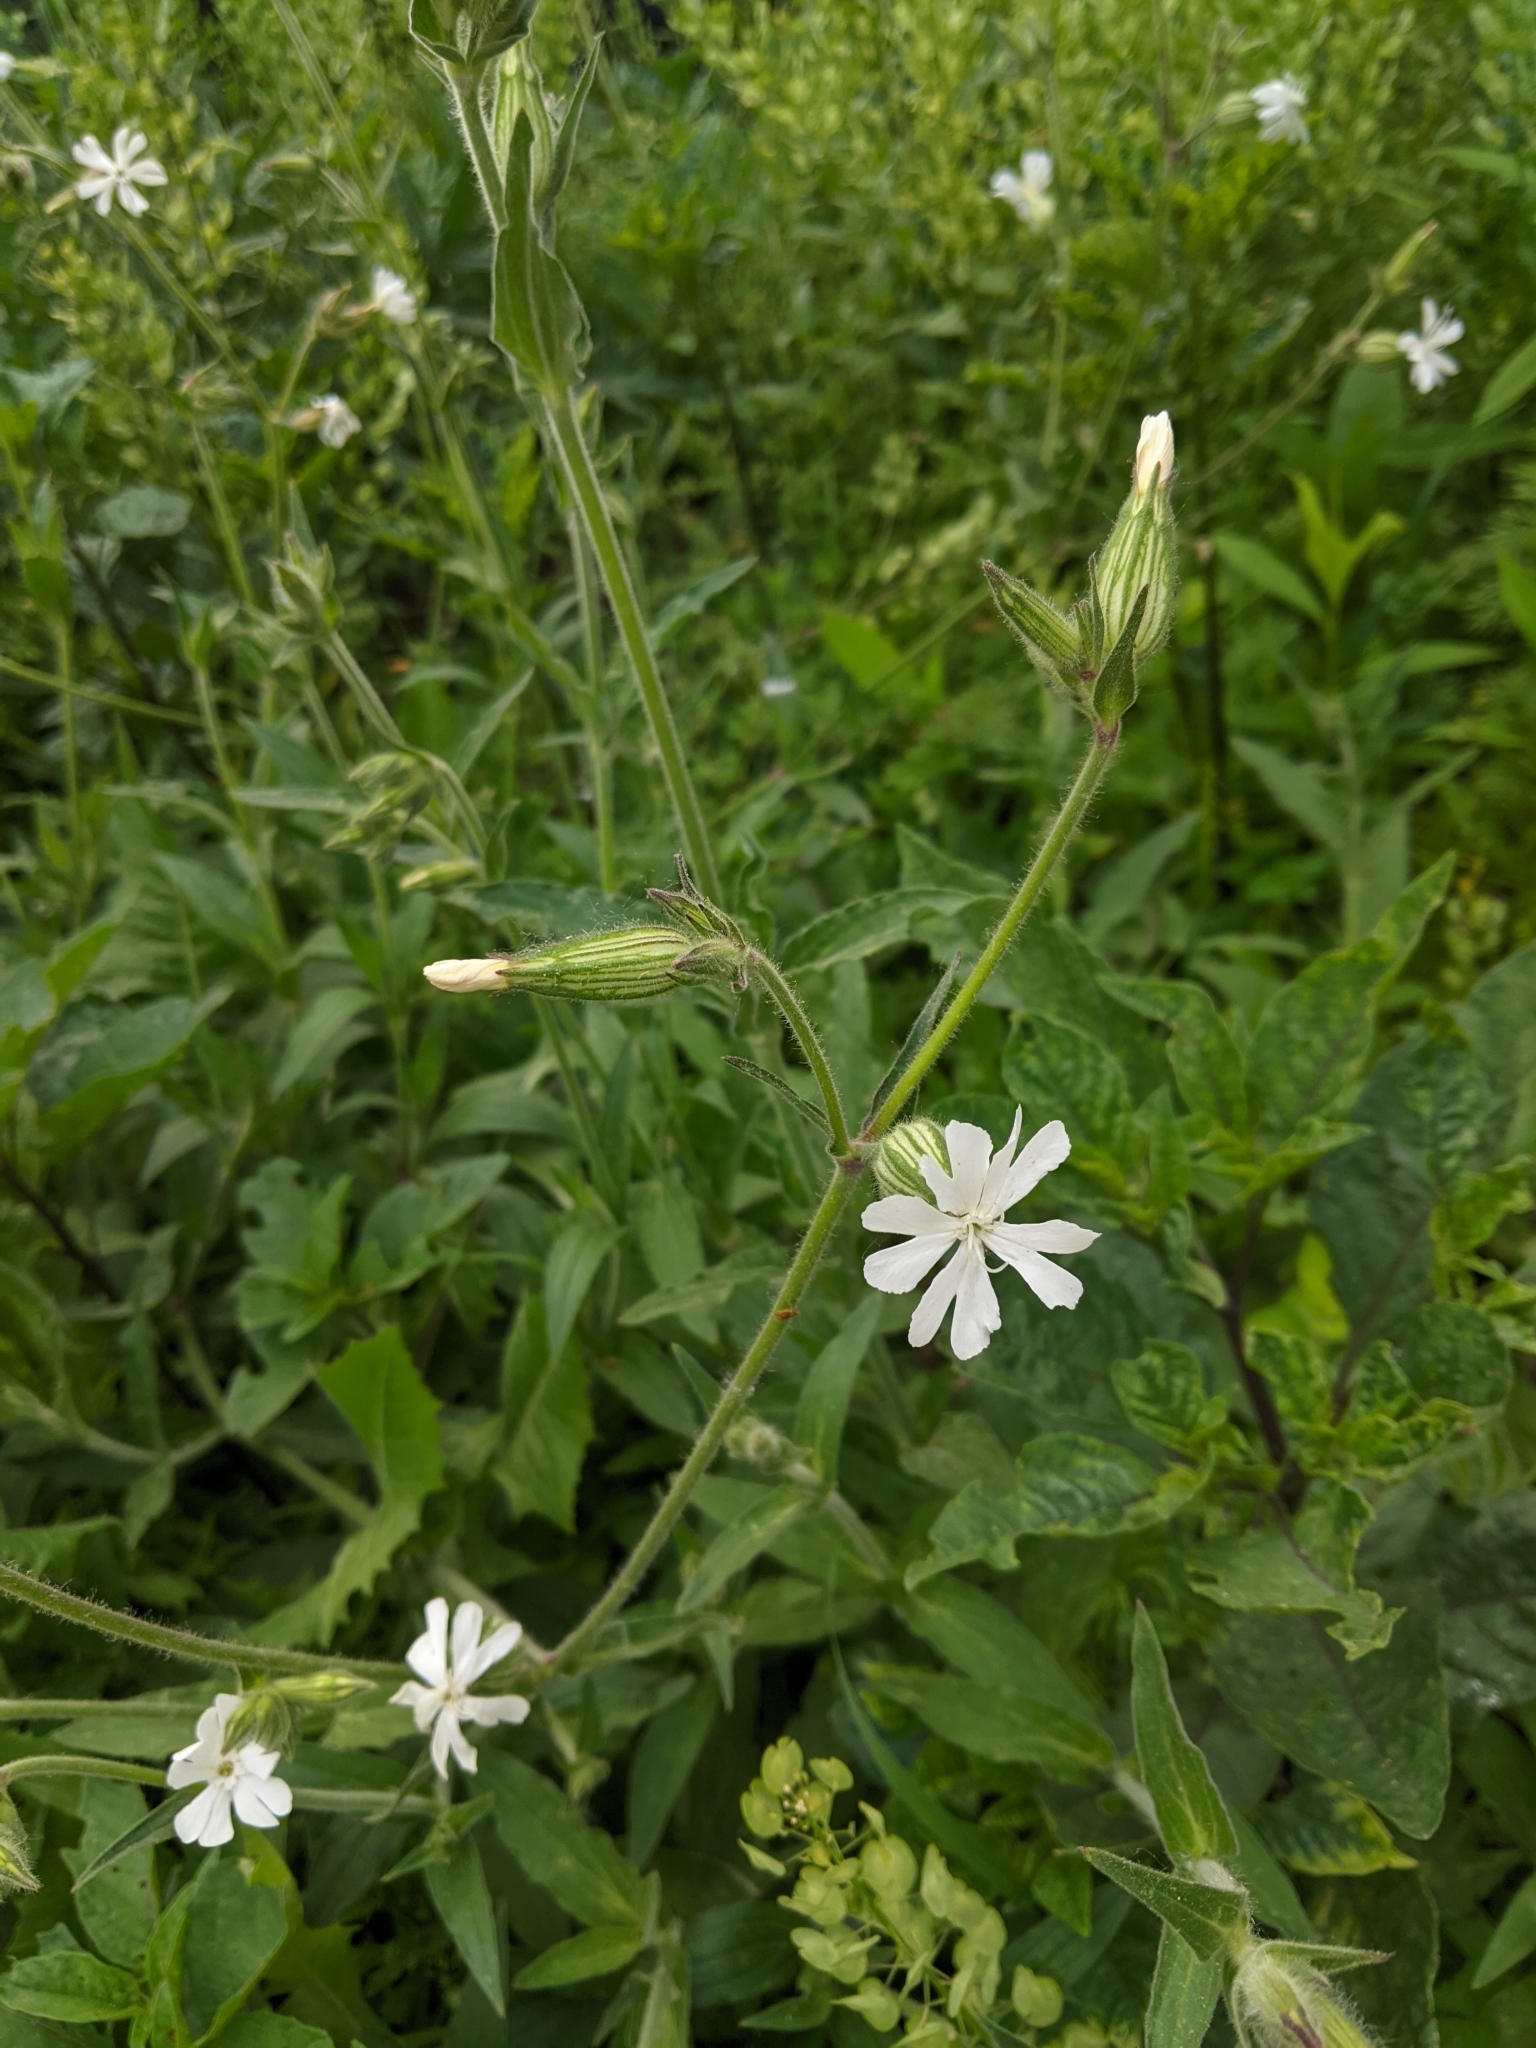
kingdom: Plantae
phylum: Tracheophyta
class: Magnoliopsida
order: Caryophyllales
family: Caryophyllaceae
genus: Silene
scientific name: Silene latifolia
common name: White campion
